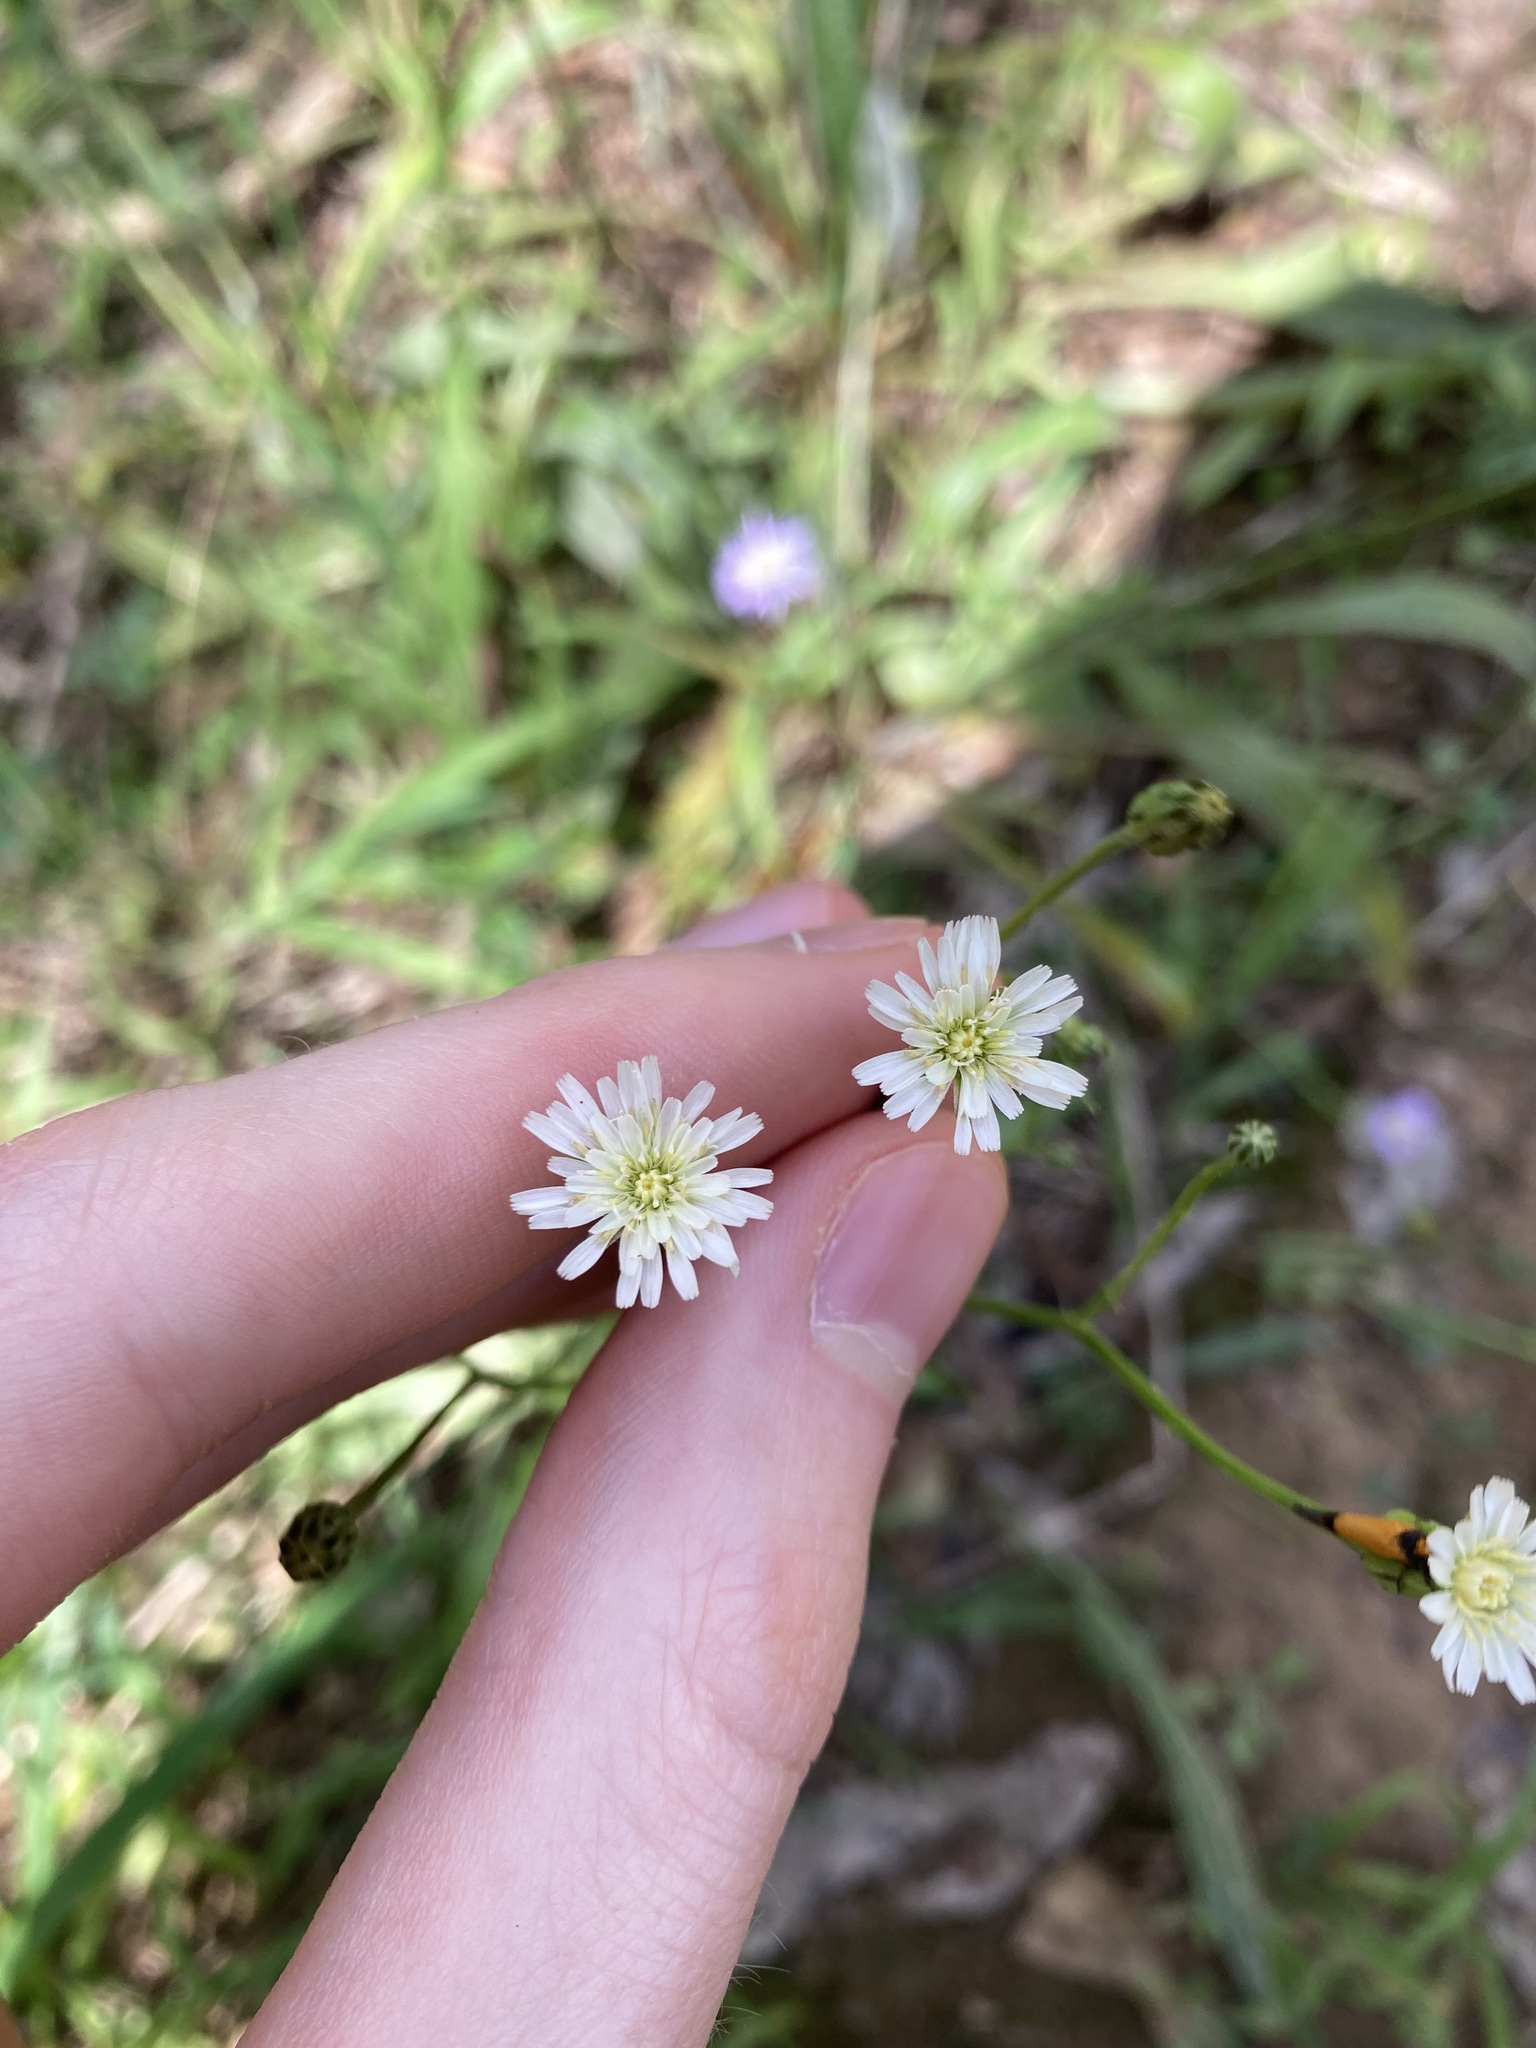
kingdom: Plantae
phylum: Tracheophyta
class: Magnoliopsida
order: Asterales
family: Asteraceae
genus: Hypochaeris
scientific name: Hypochaeris albiflora
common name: White flatweed
